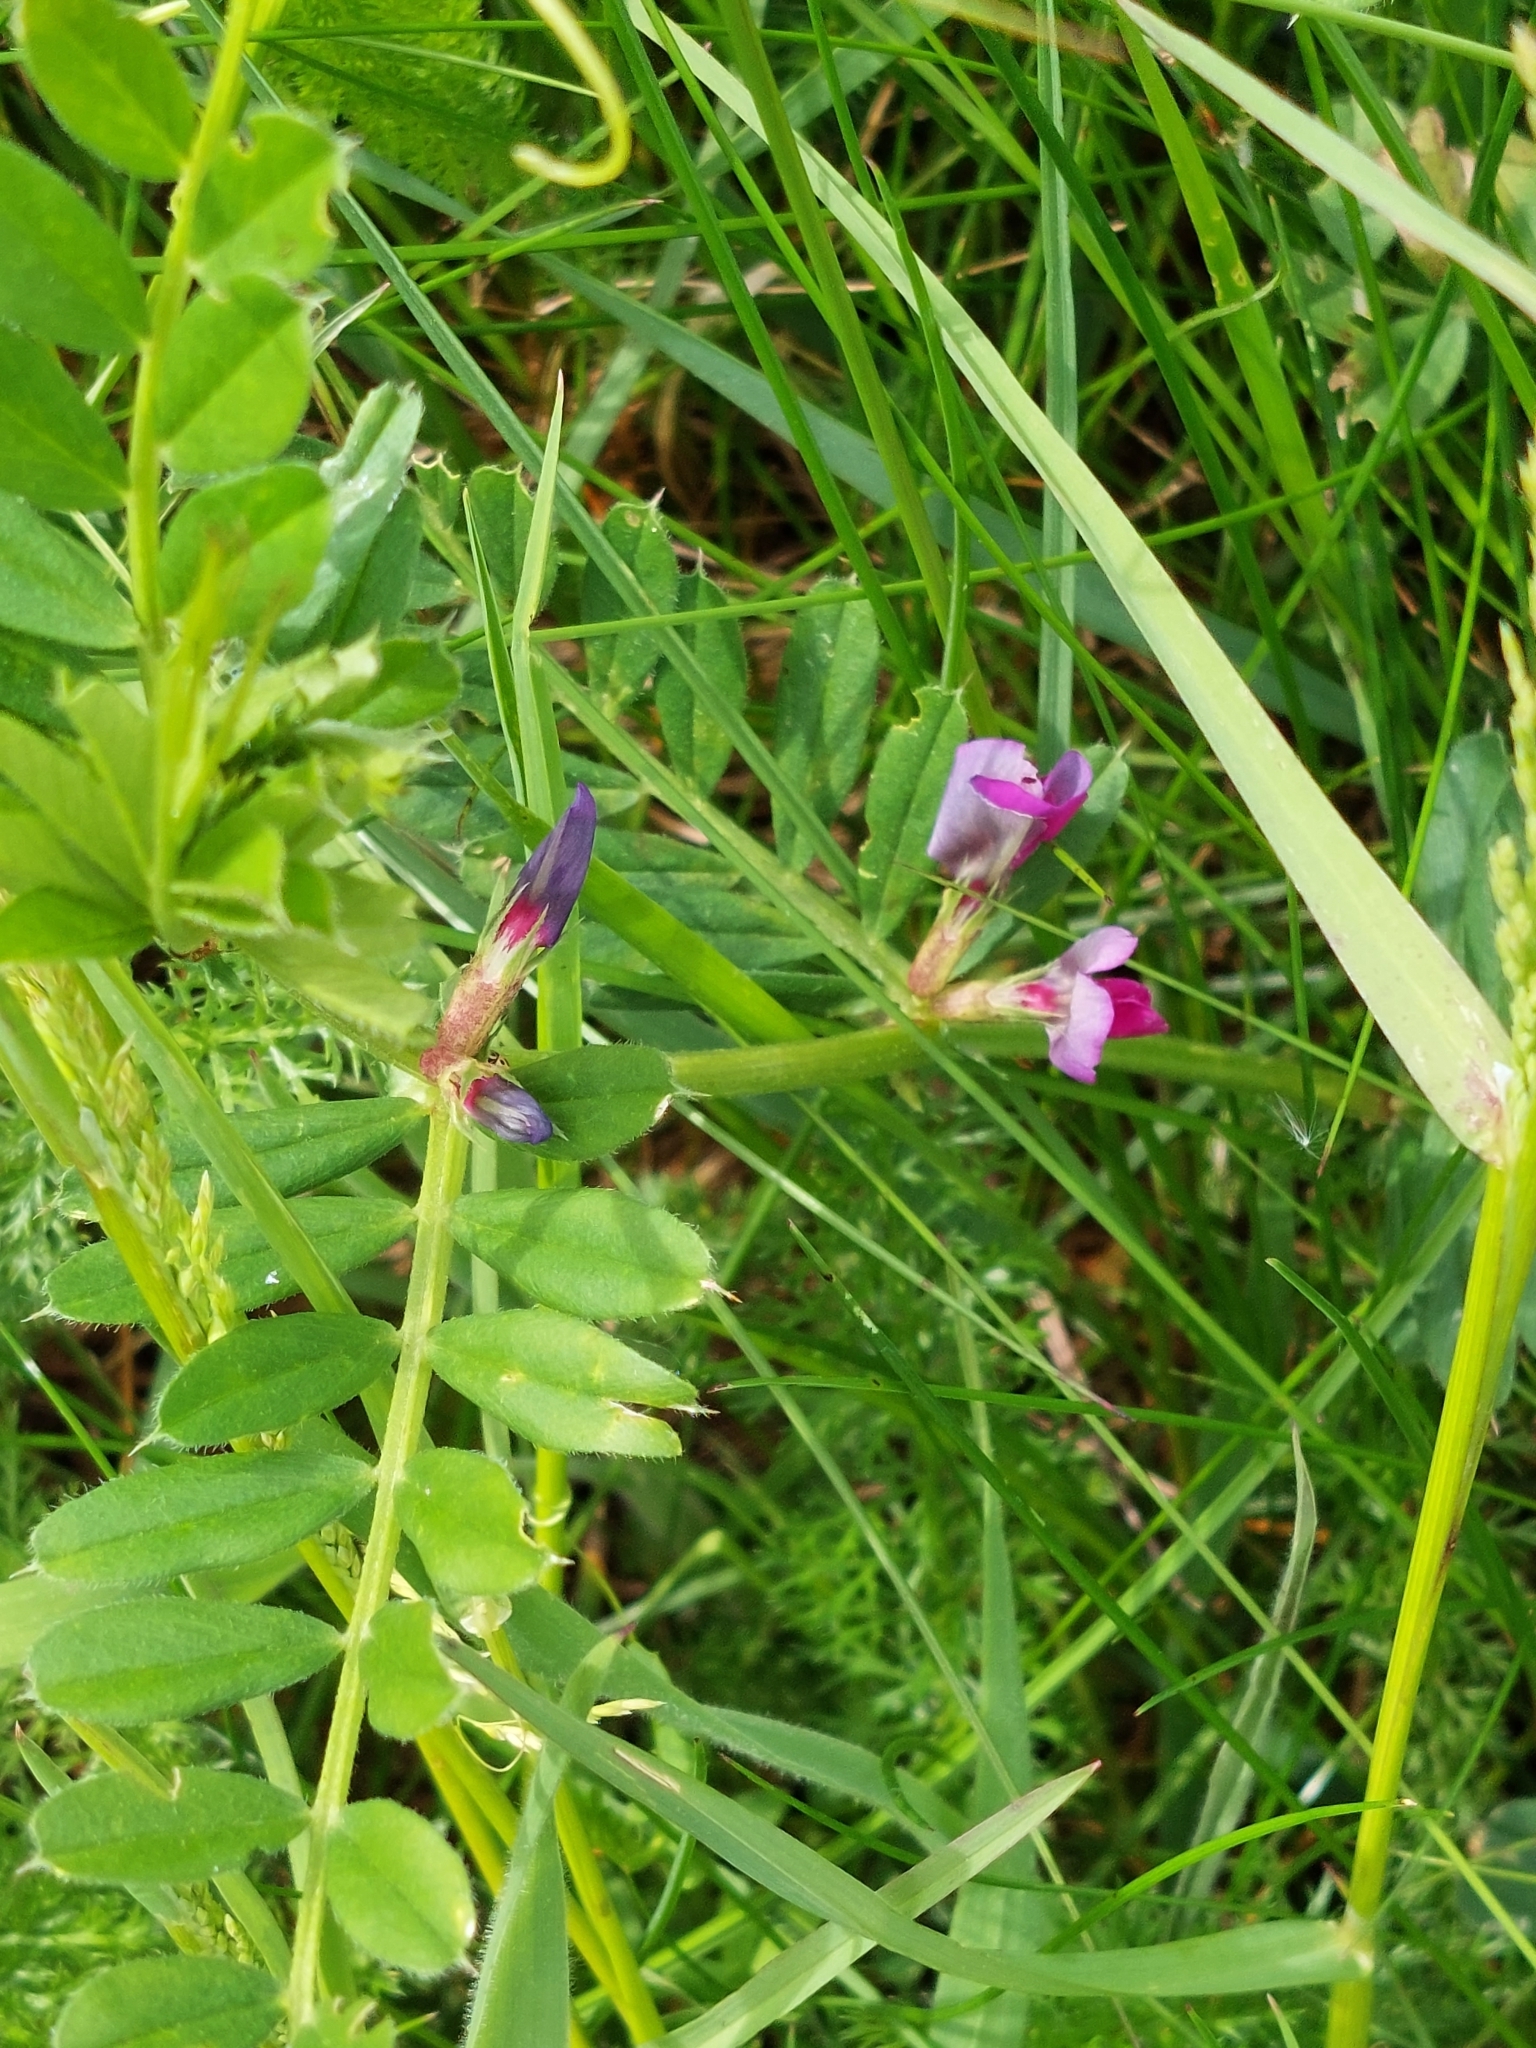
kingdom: Plantae
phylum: Tracheophyta
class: Magnoliopsida
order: Fabales
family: Fabaceae
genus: Vicia
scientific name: Vicia sativa
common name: Garden vetch
